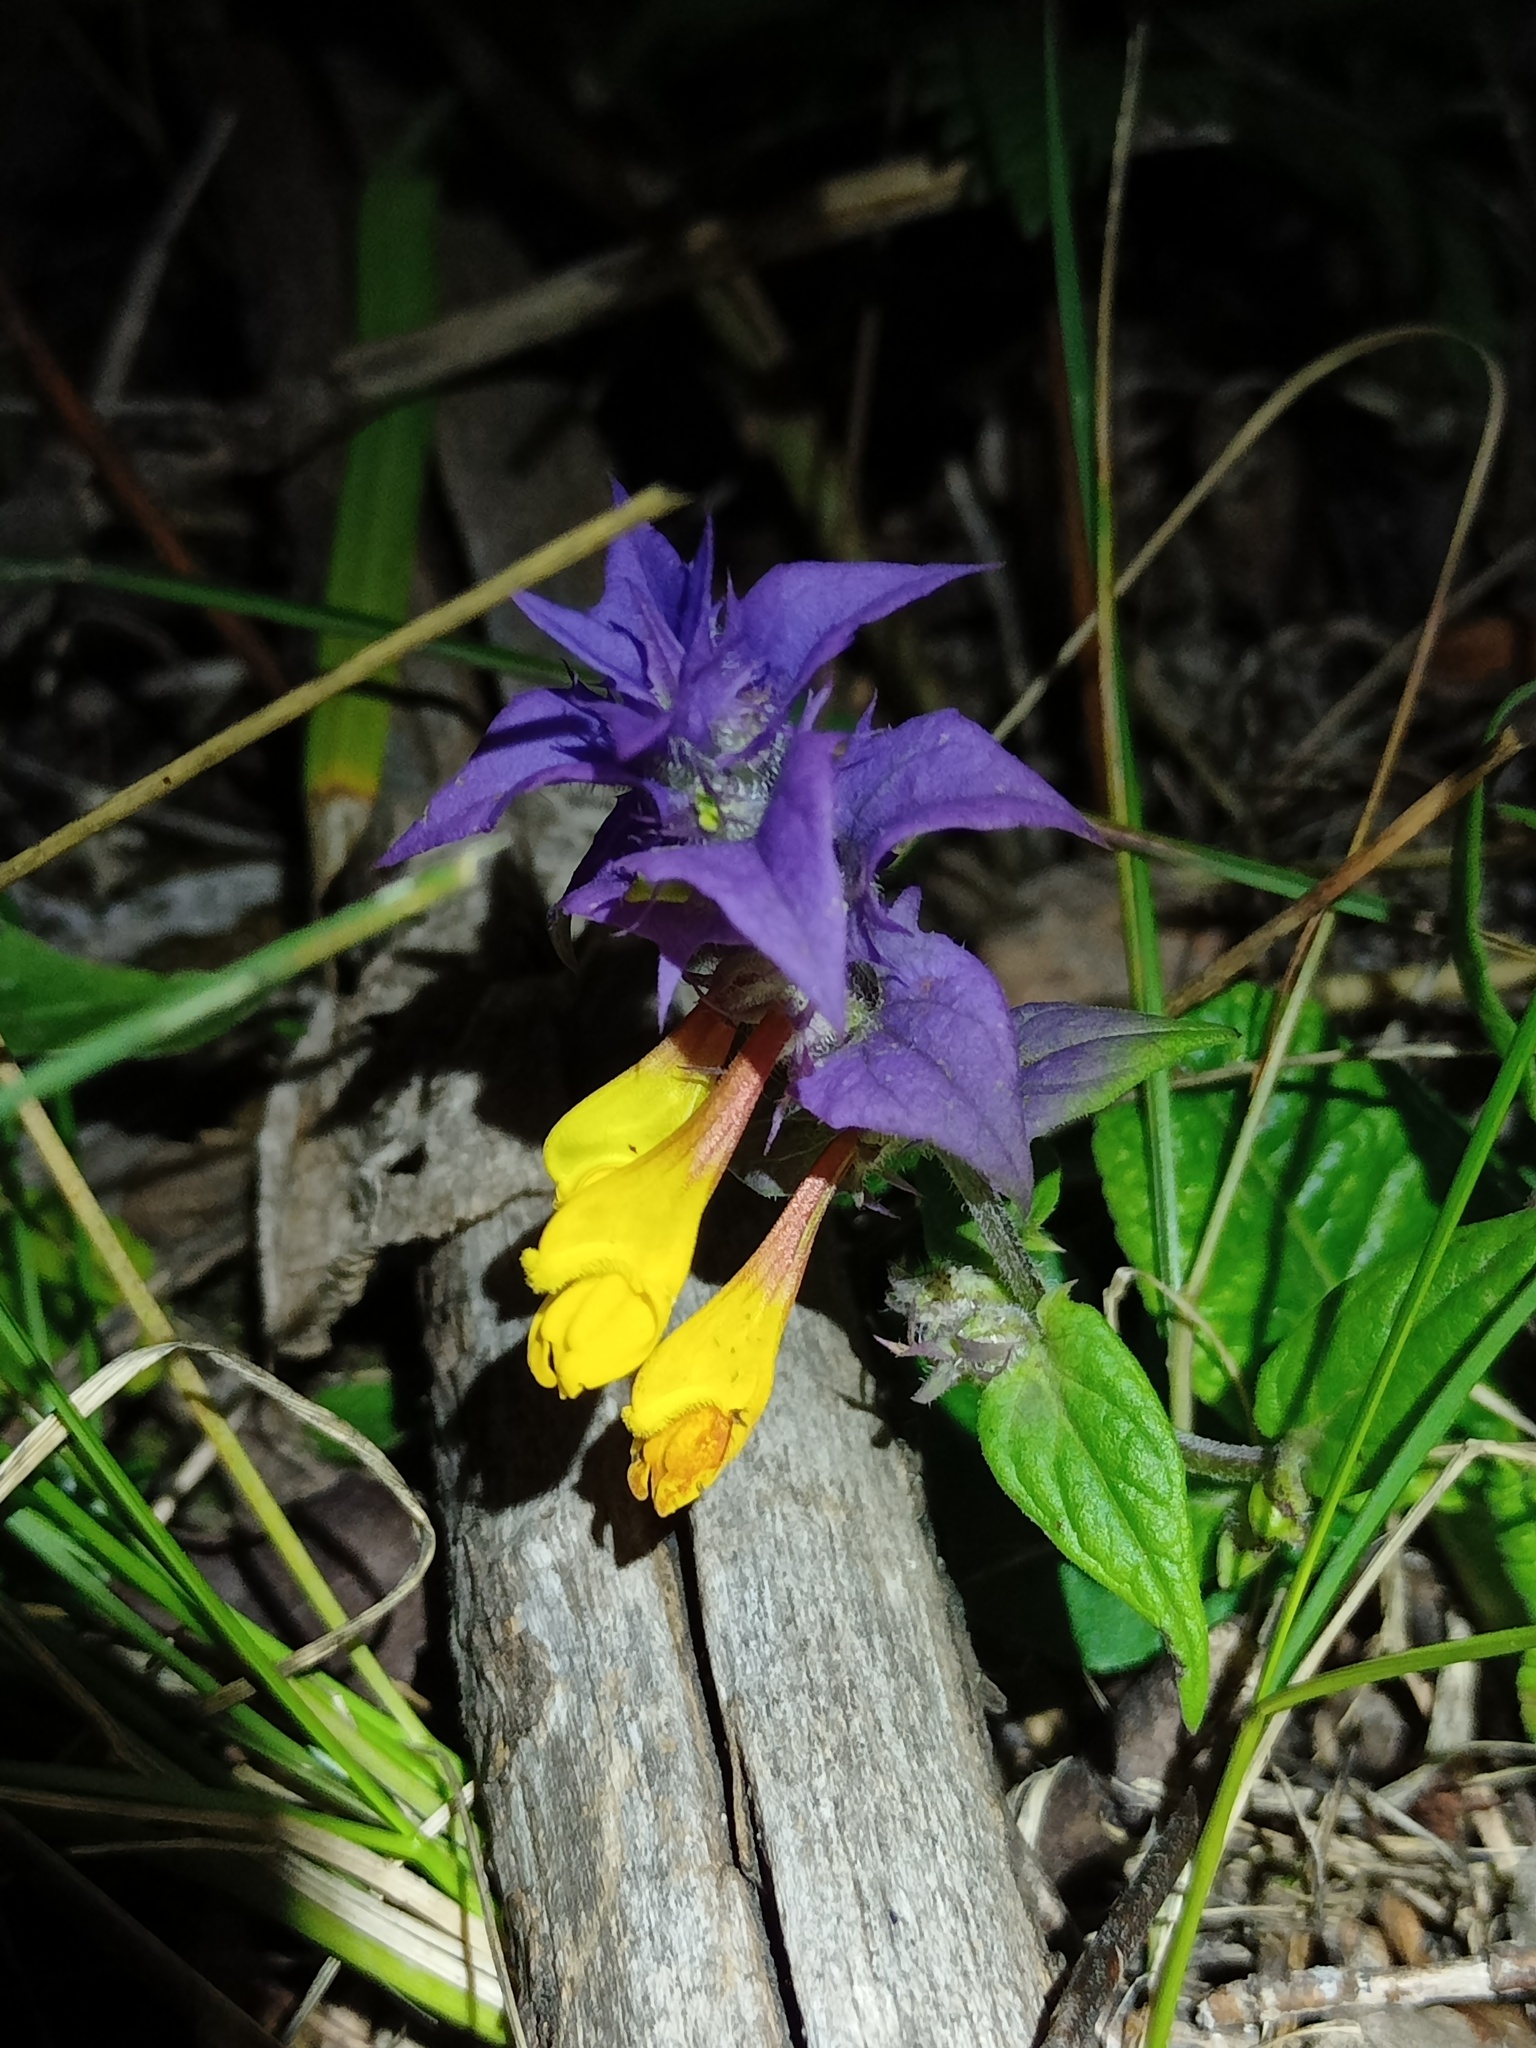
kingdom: Plantae
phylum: Tracheophyta
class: Magnoliopsida
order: Lamiales
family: Orobanchaceae
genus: Melampyrum
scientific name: Melampyrum nemorosum
